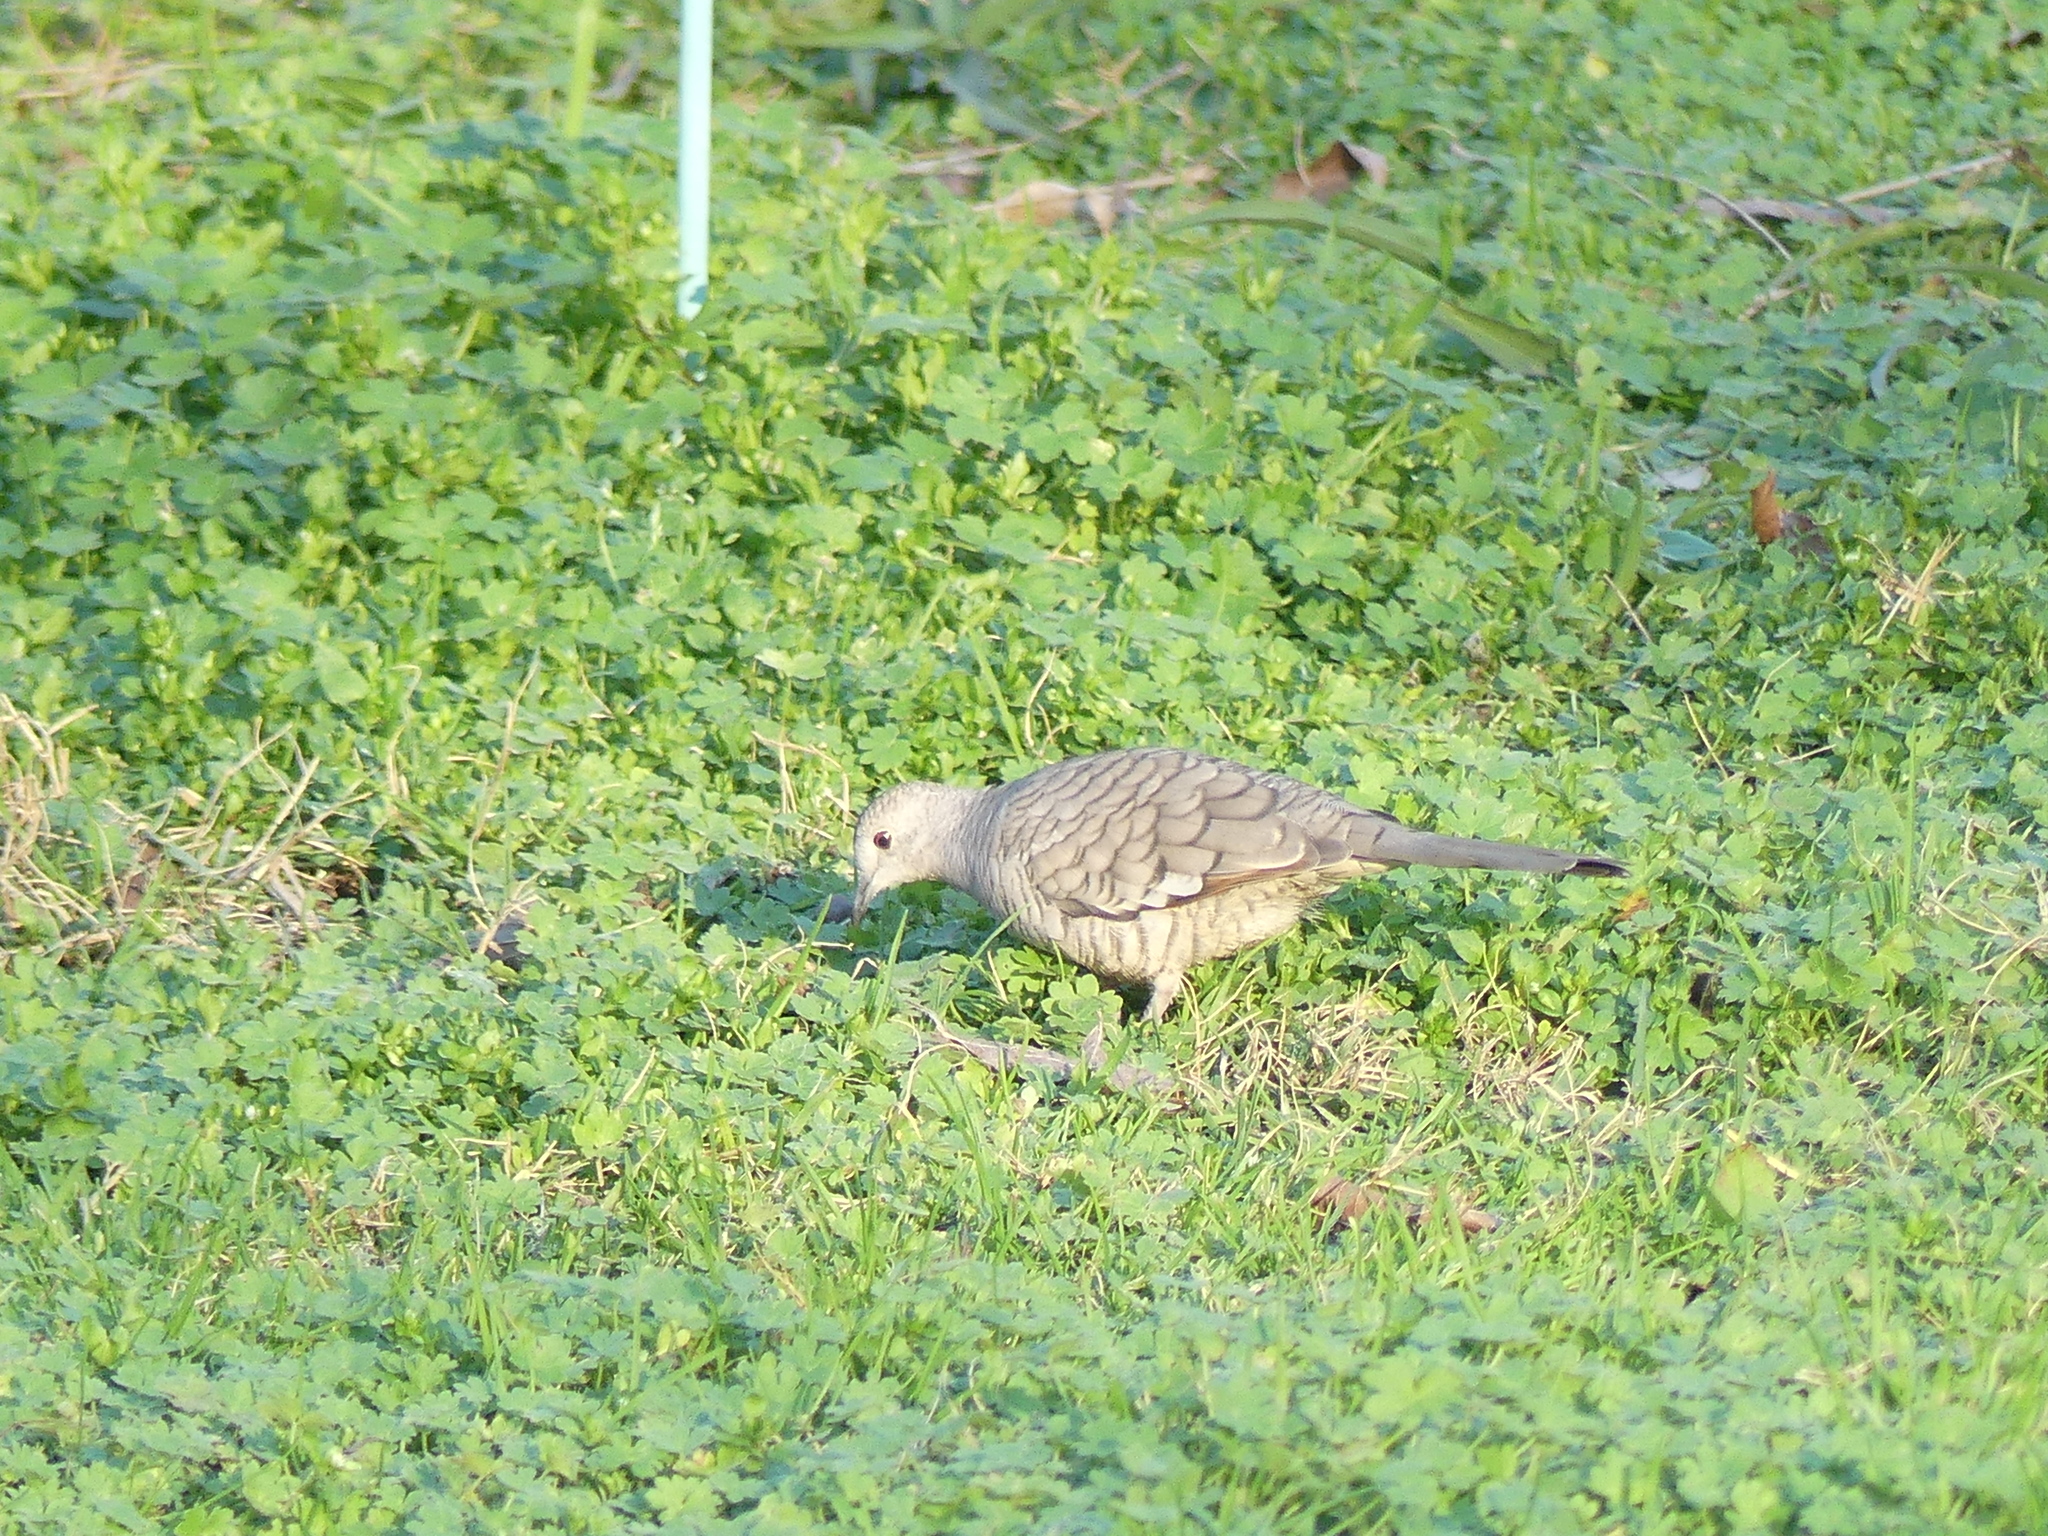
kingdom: Animalia
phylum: Chordata
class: Aves
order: Columbiformes
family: Columbidae
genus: Columbina
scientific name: Columbina inca
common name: Inca dove
